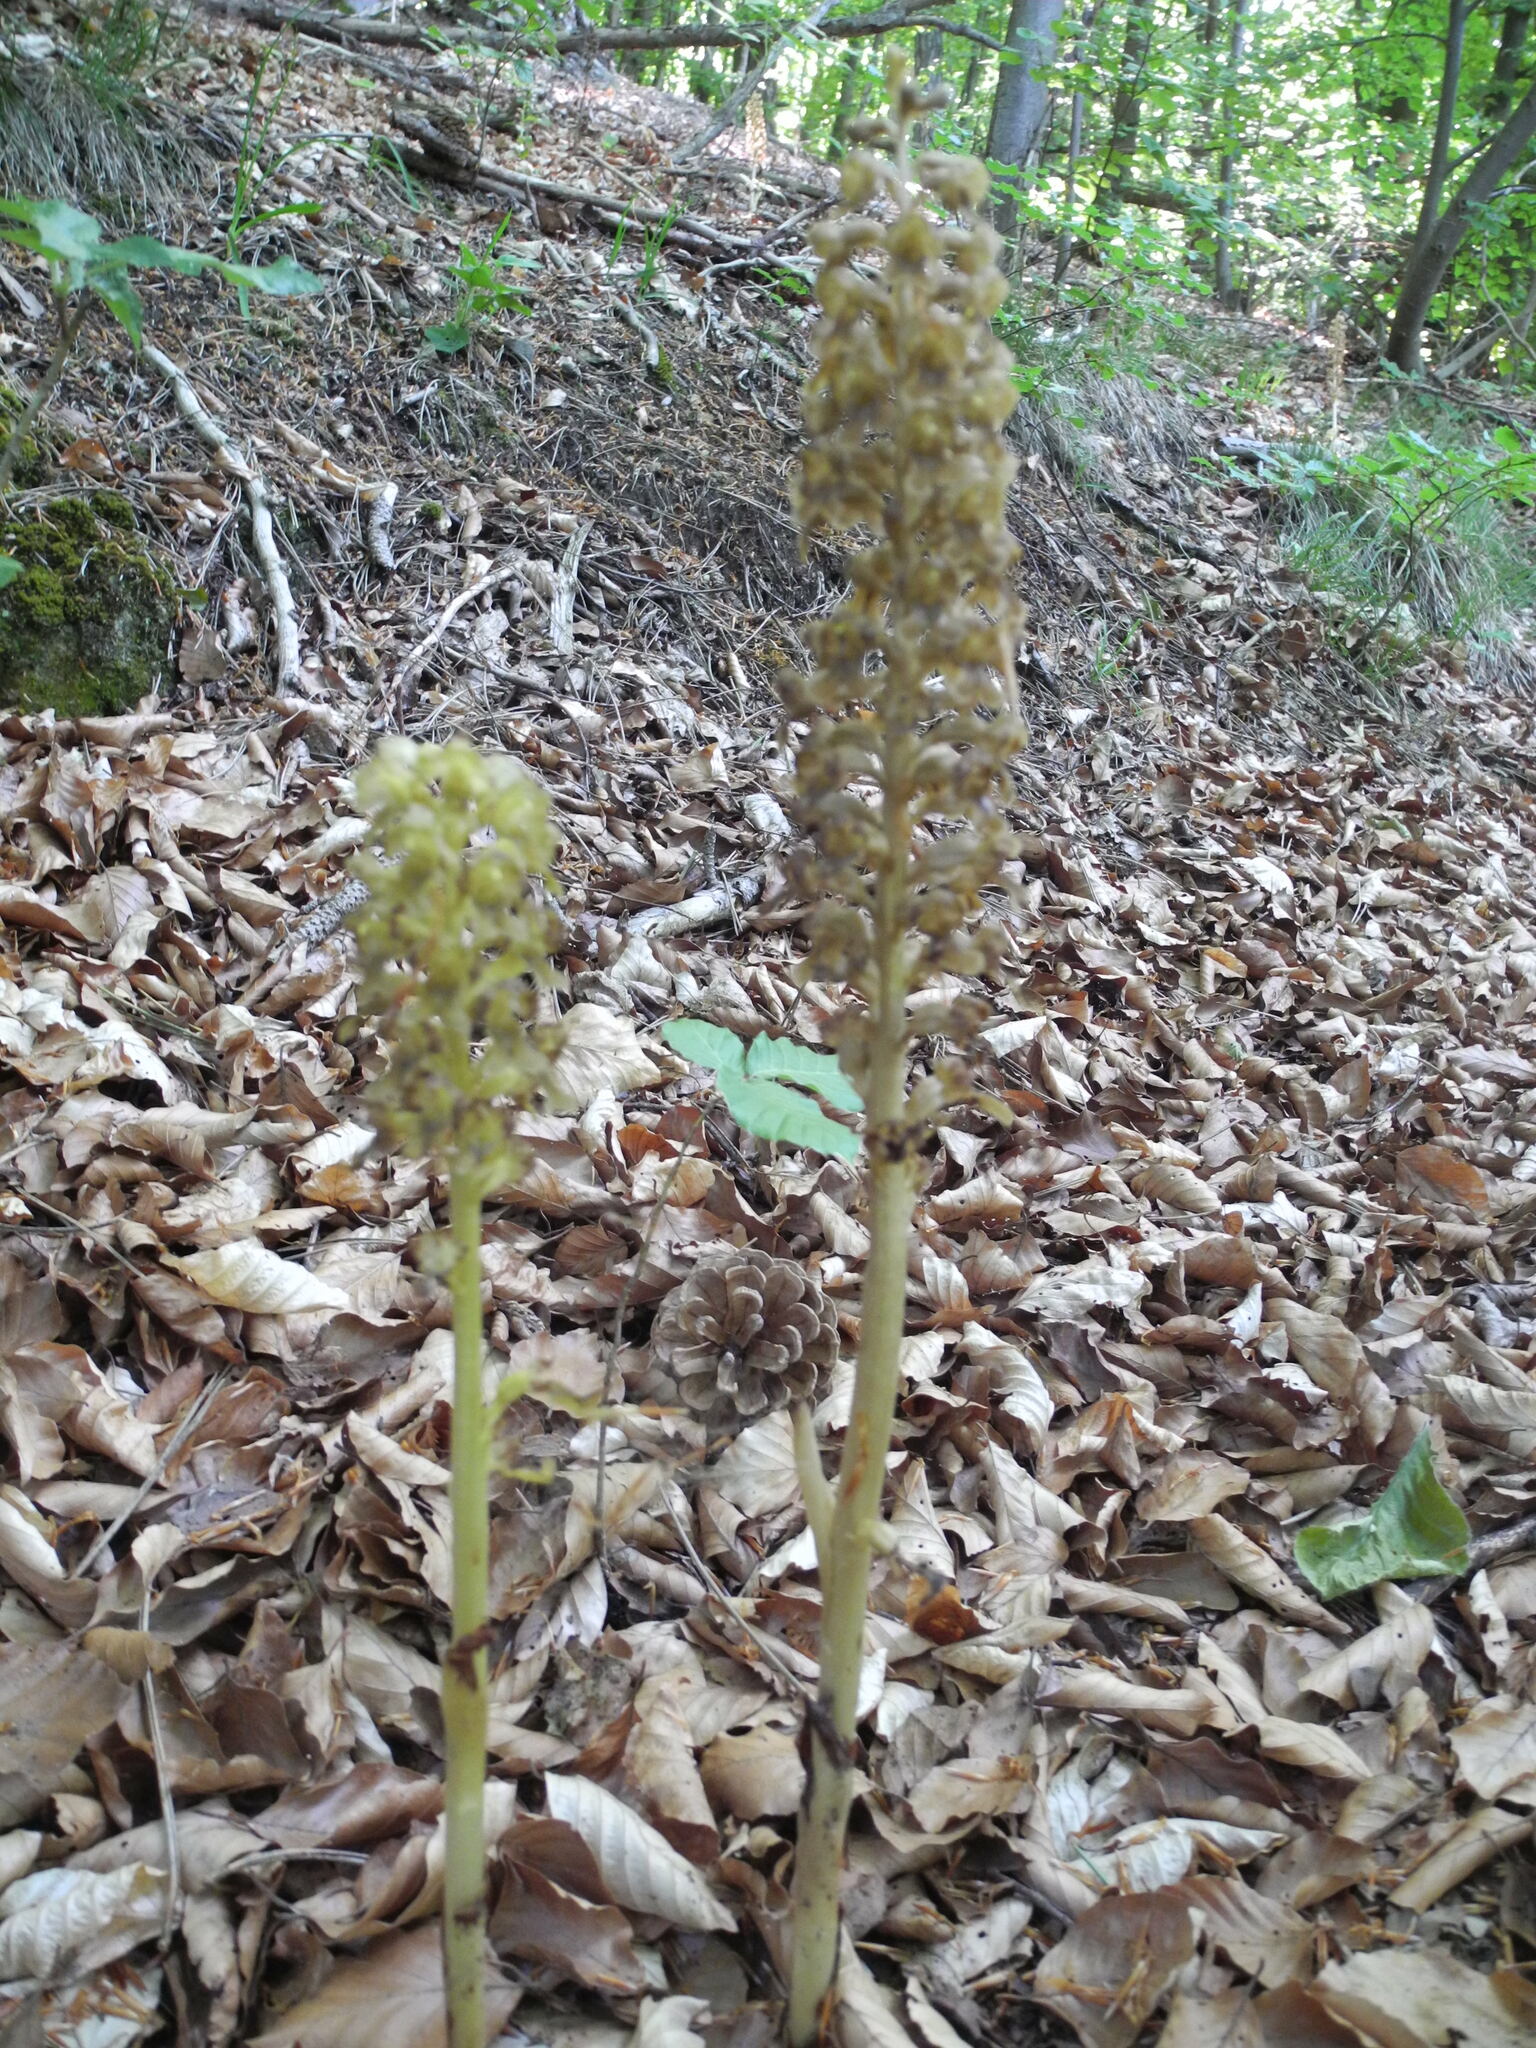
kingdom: Plantae
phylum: Tracheophyta
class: Liliopsida
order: Asparagales
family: Orchidaceae
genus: Neottia
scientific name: Neottia nidus-avis
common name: Bird's-nest orchid
